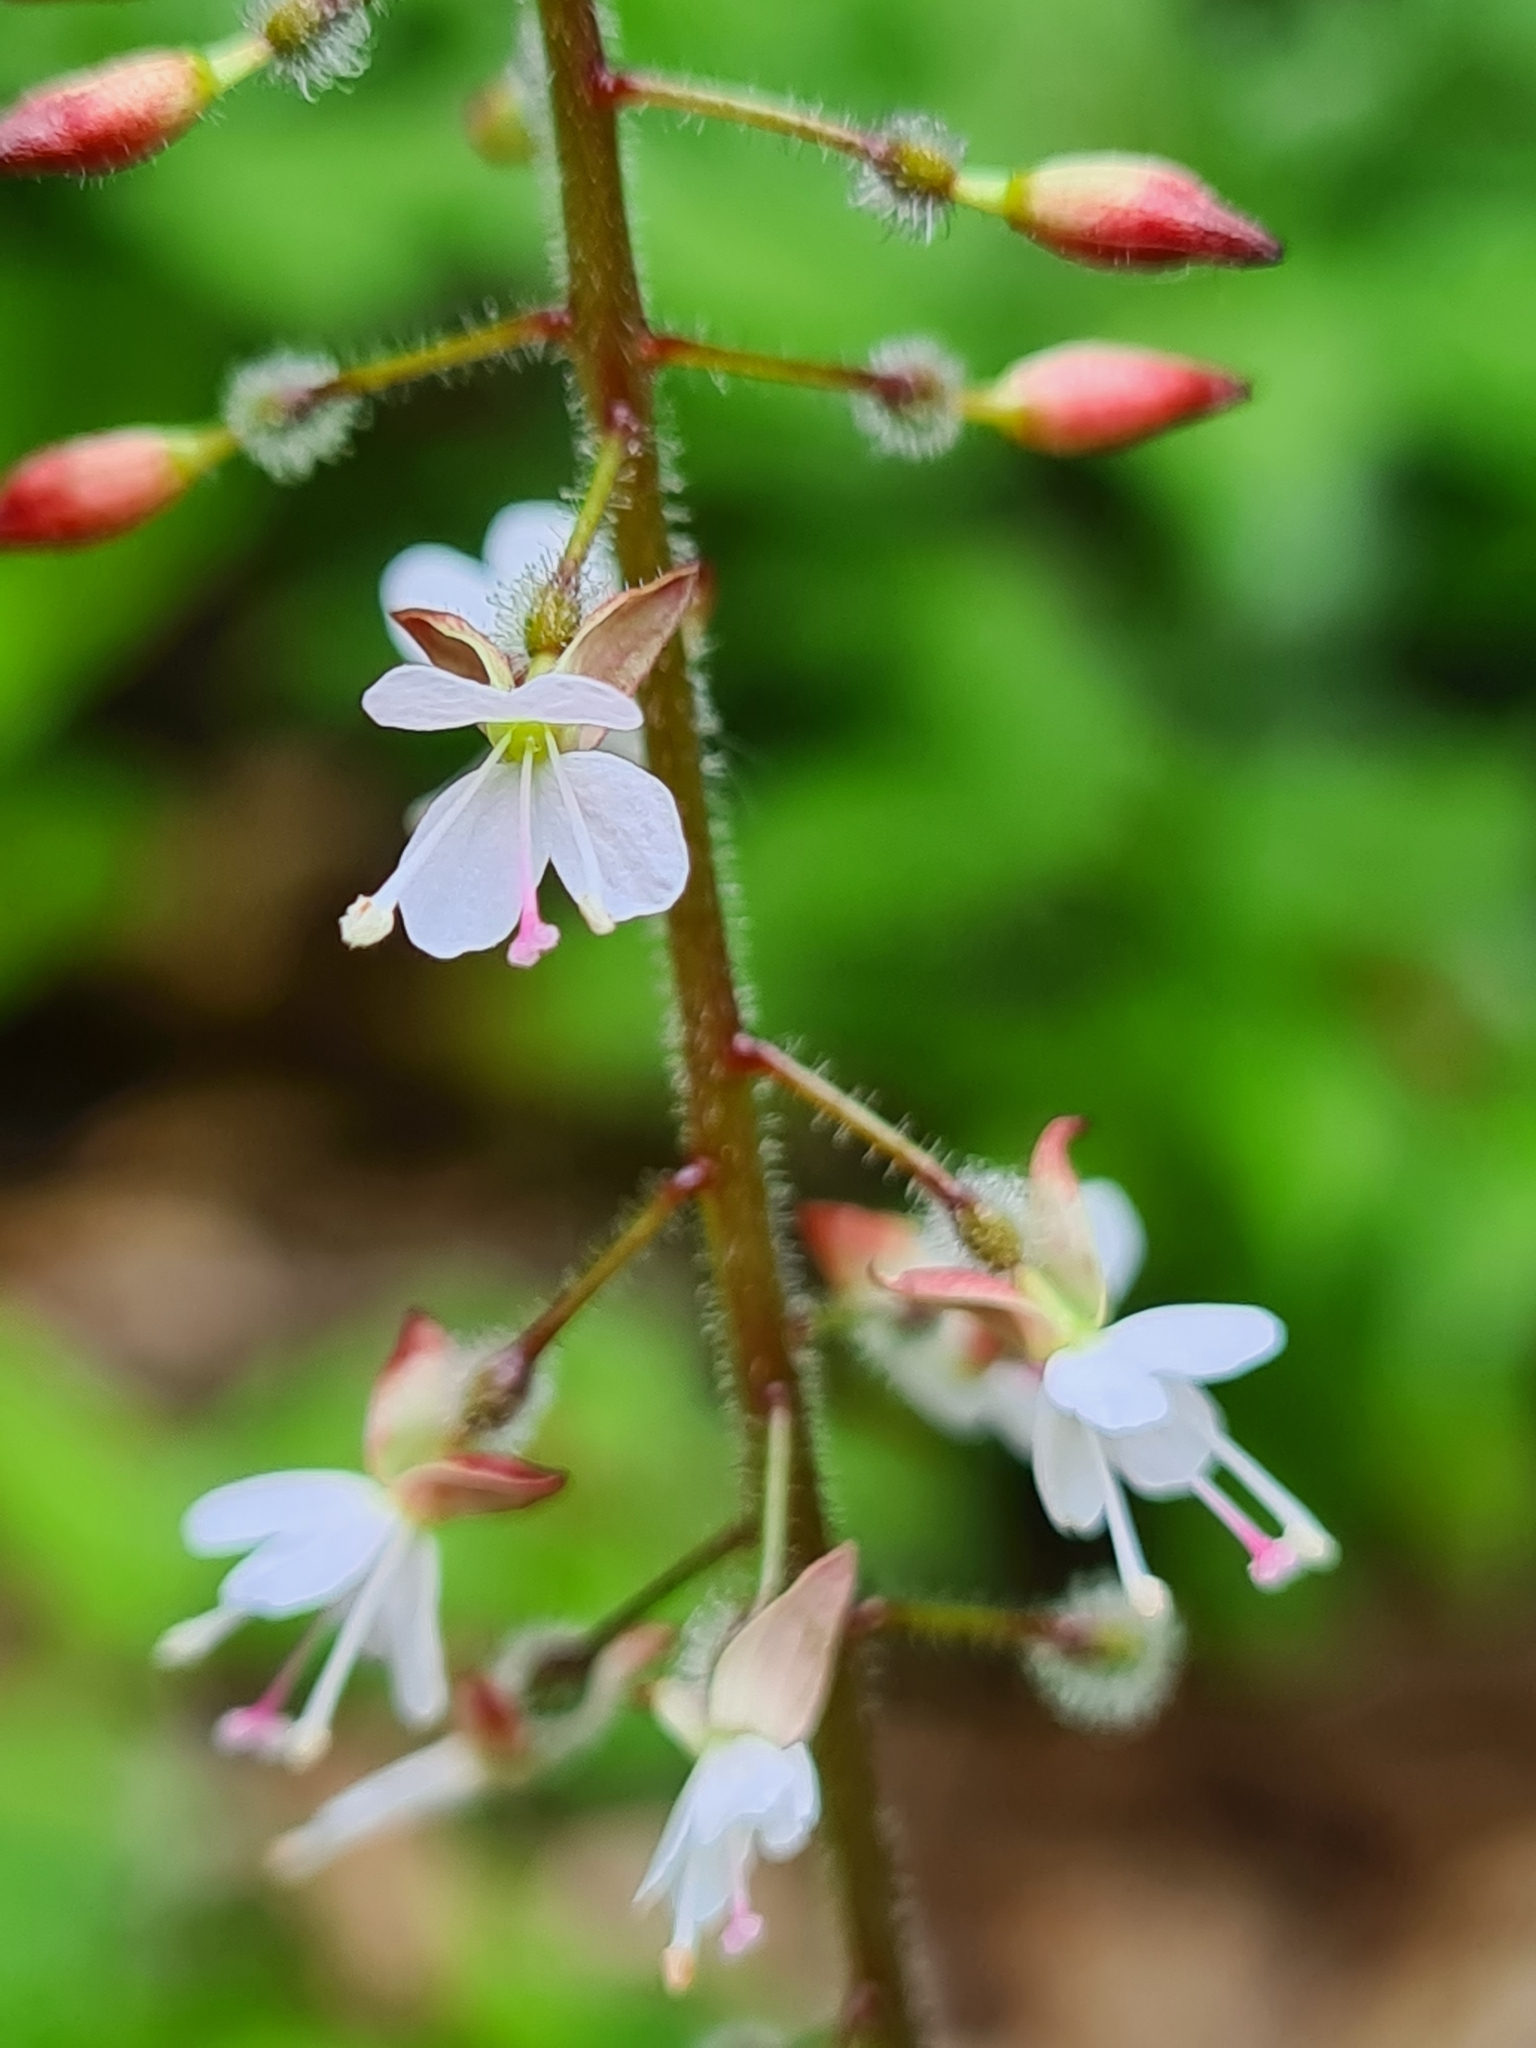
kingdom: Plantae
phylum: Tracheophyta
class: Magnoliopsida
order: Myrtales
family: Onagraceae
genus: Circaea
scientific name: Circaea lutetiana
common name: Enchanter's-nightshade
